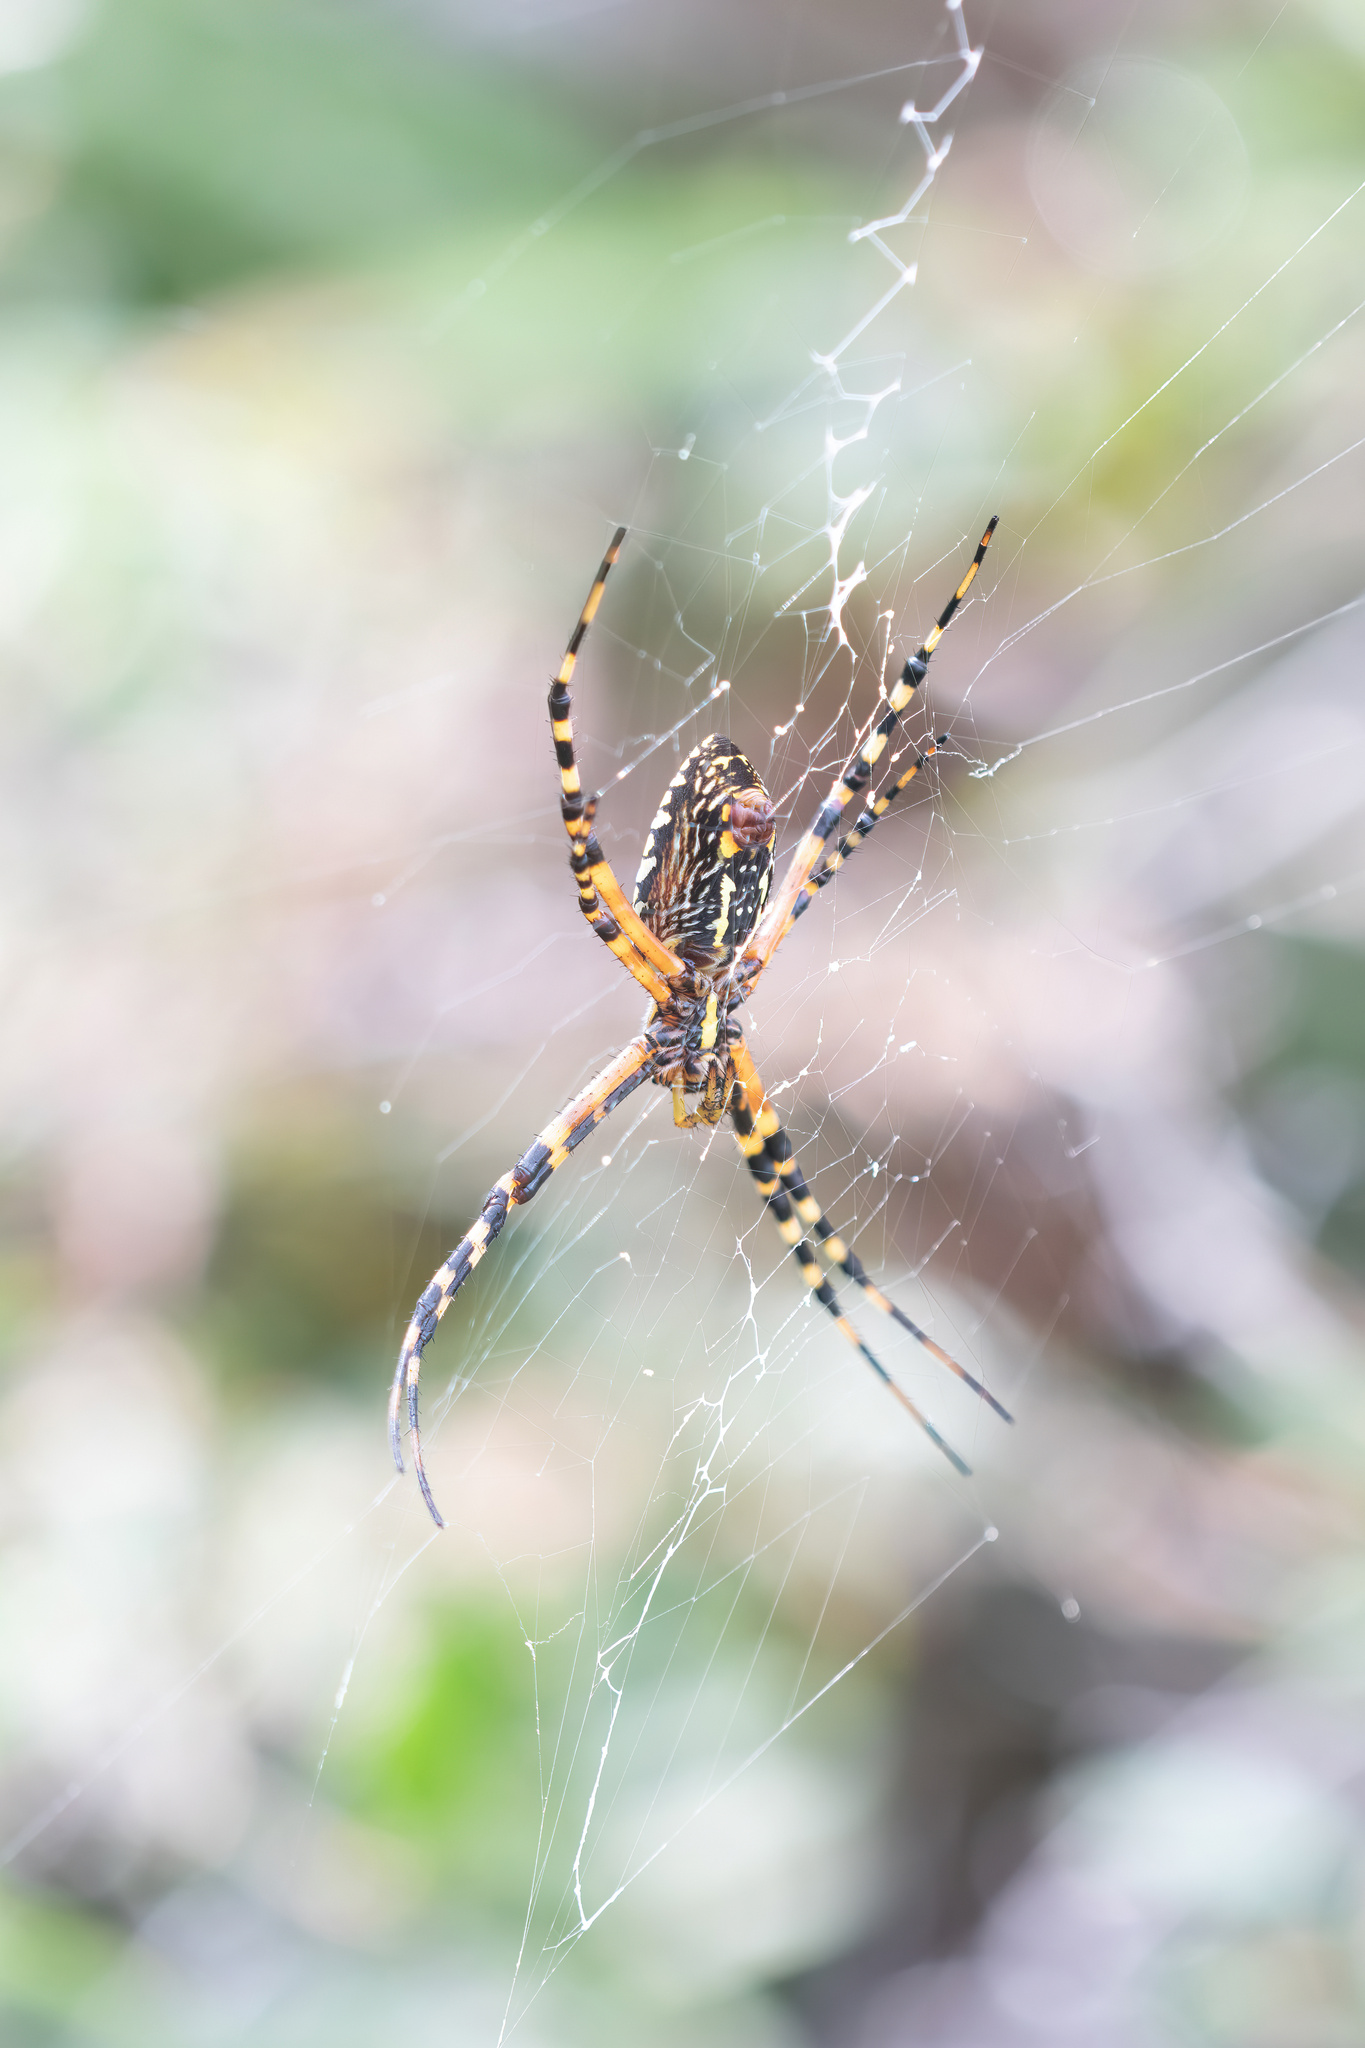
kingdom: Animalia
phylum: Arthropoda
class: Arachnida
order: Araneae
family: Araneidae
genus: Argiope
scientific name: Argiope aurantia
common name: Orb weavers
